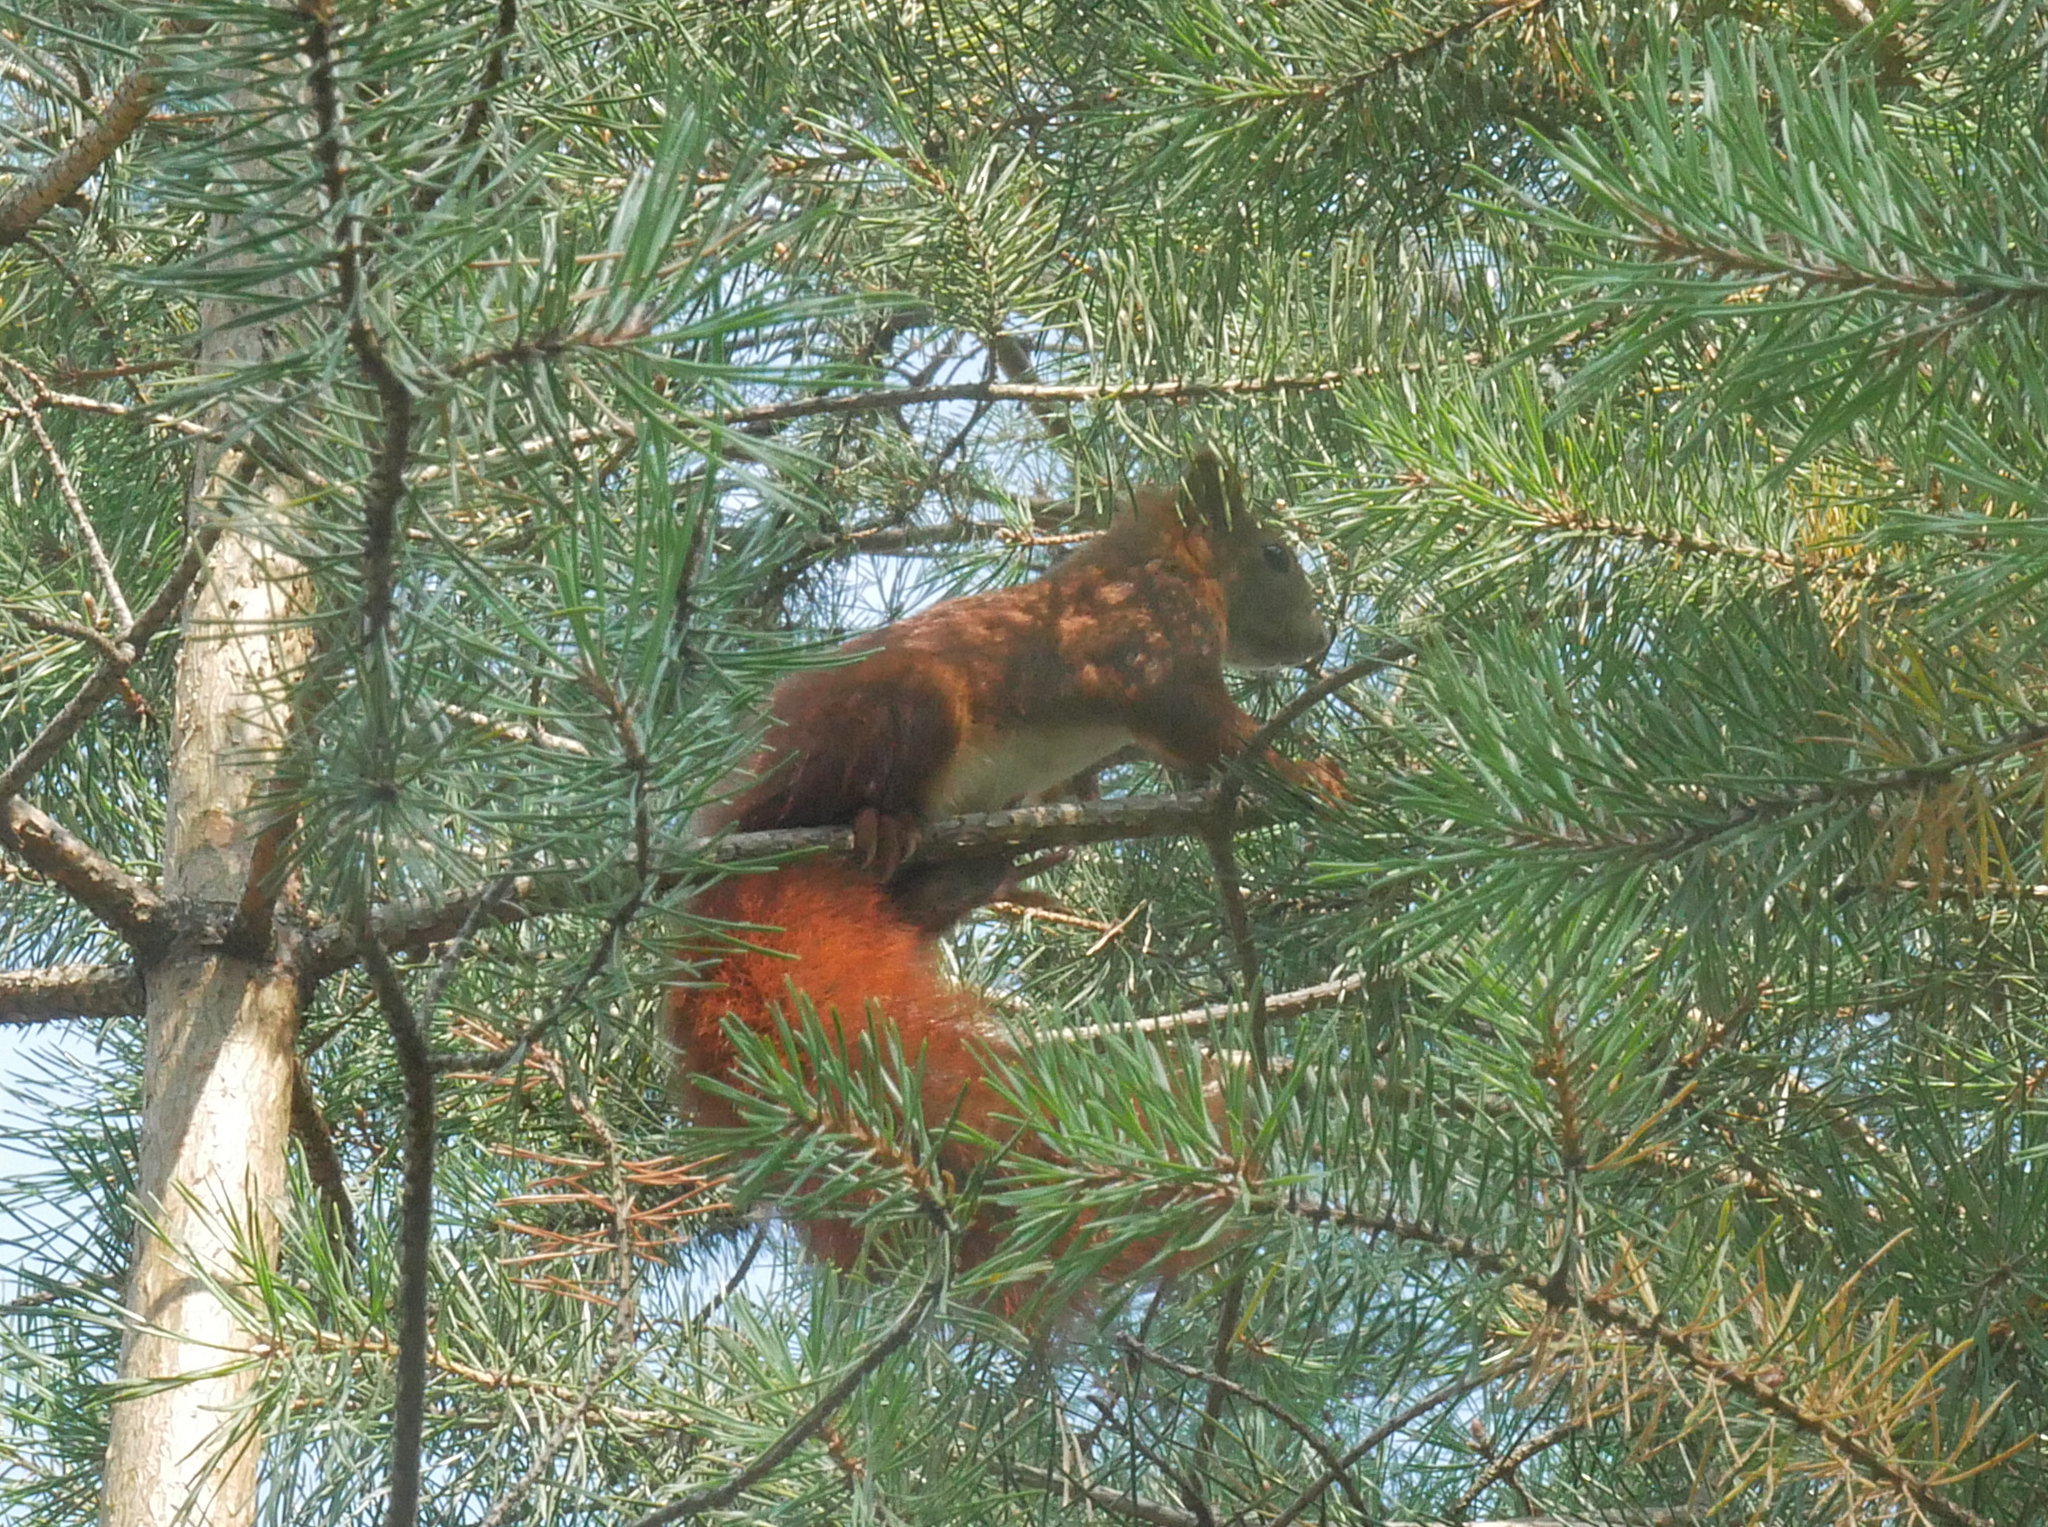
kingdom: Animalia
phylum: Chordata
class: Mammalia
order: Rodentia
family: Sciuridae
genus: Sciurus
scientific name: Sciurus vulgaris
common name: Eurasian red squirrel
